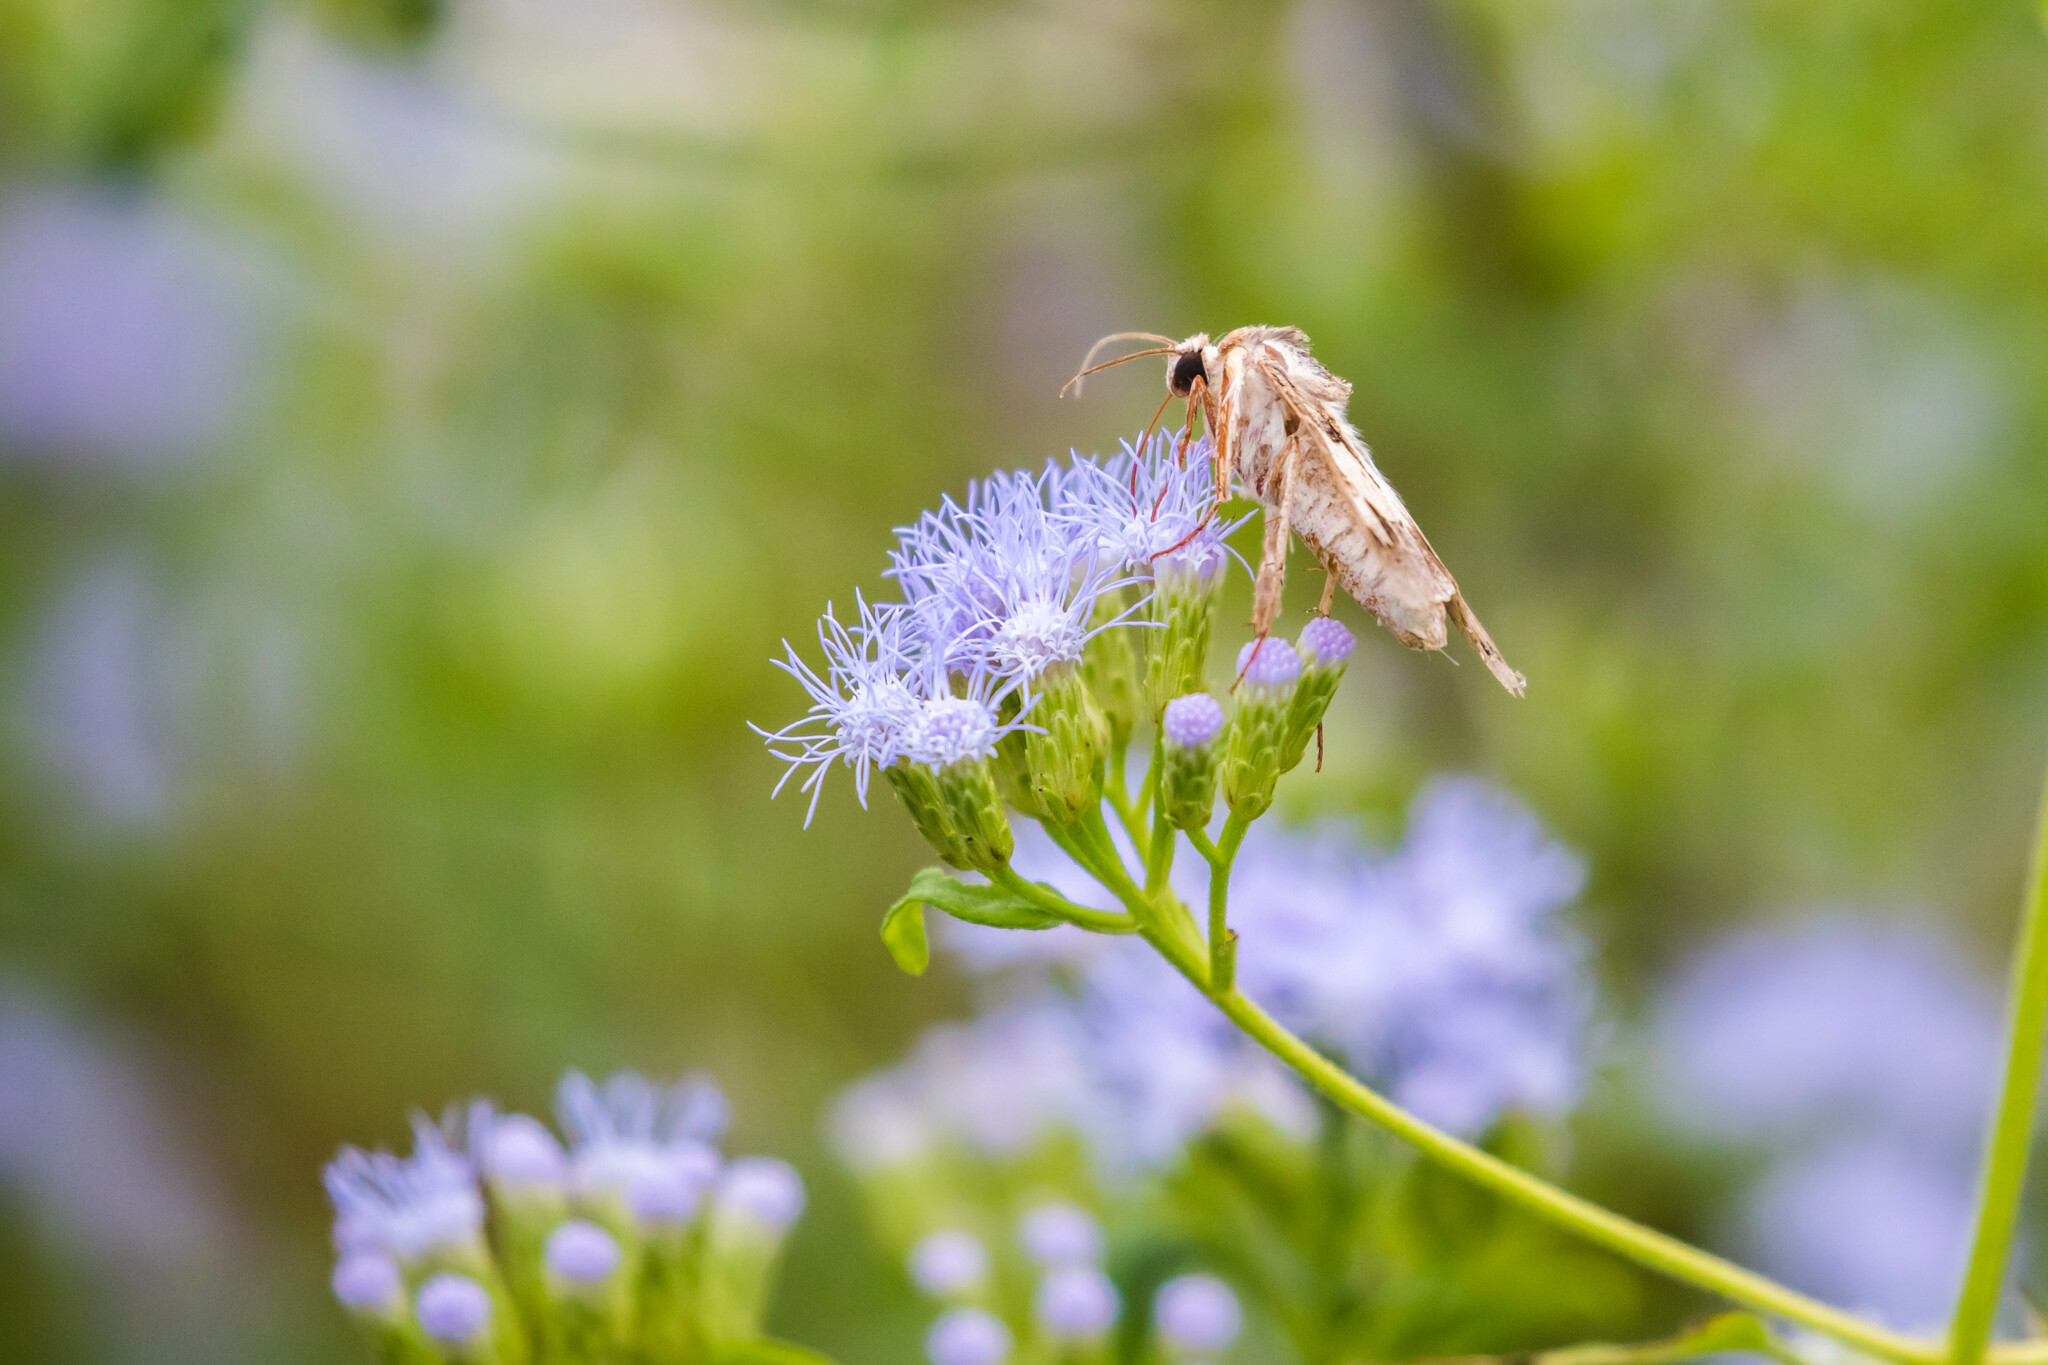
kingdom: Animalia
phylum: Arthropoda
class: Insecta
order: Lepidoptera
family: Erebidae
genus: Melipotis
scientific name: Melipotis agrotoides
